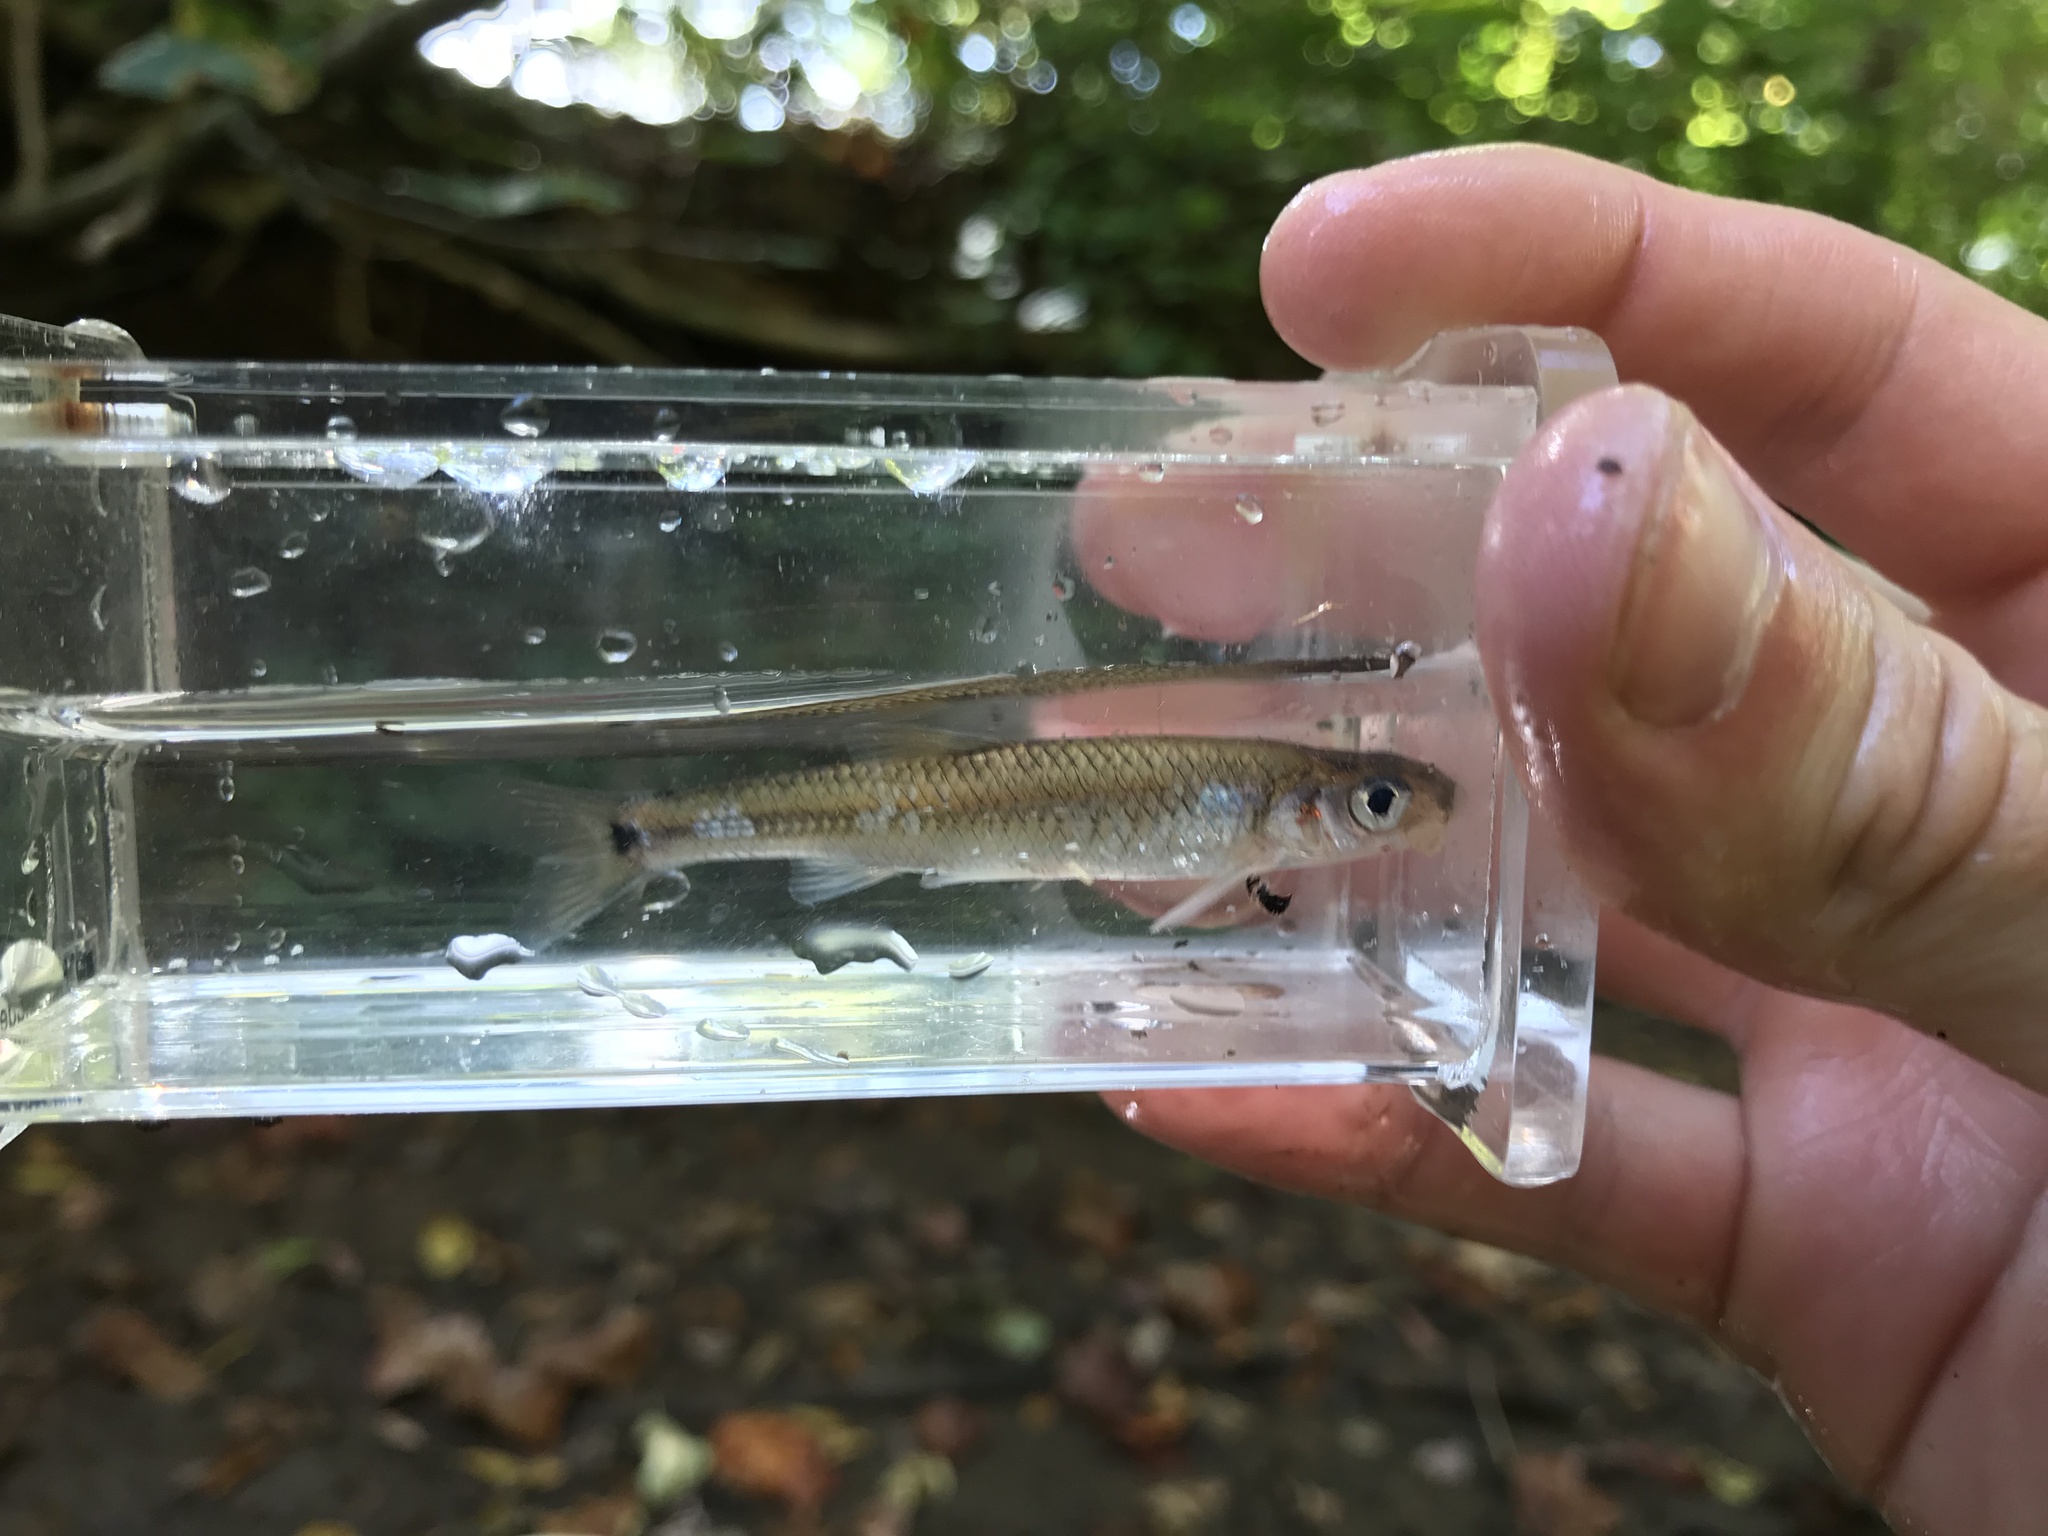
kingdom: Animalia
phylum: Chordata
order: Cypriniformes
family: Cyprinidae
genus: Notropis
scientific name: Notropis
